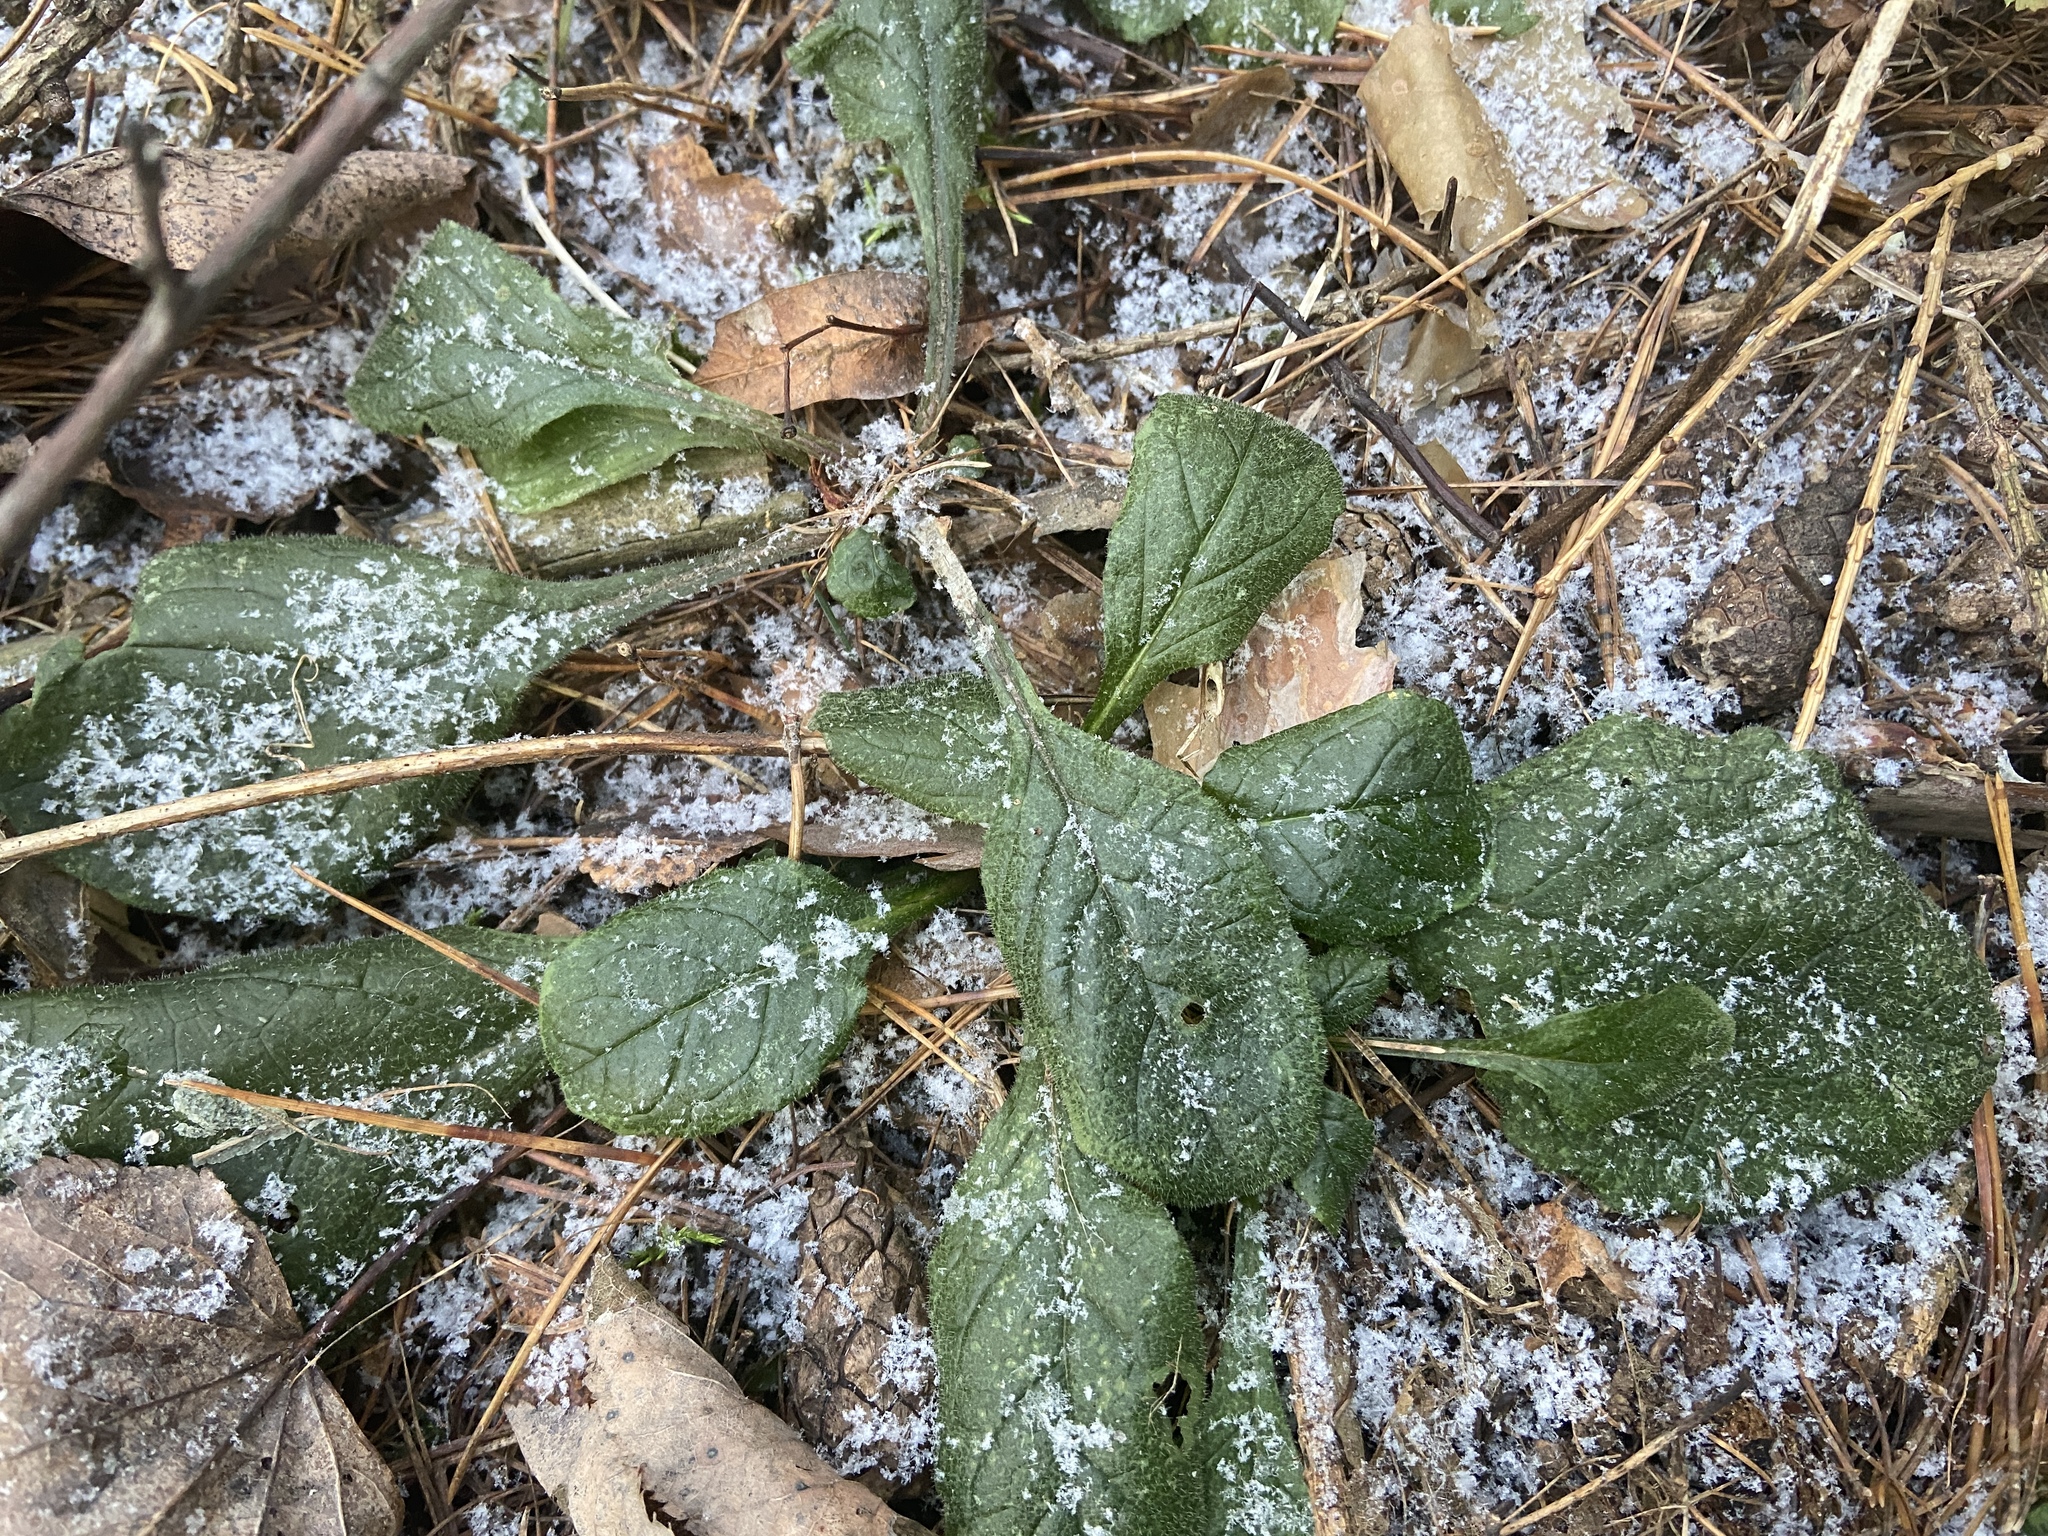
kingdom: Plantae
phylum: Tracheophyta
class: Magnoliopsida
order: Lamiales
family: Lamiaceae
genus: Ajuga
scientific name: Ajuga reptans
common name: Bugle
